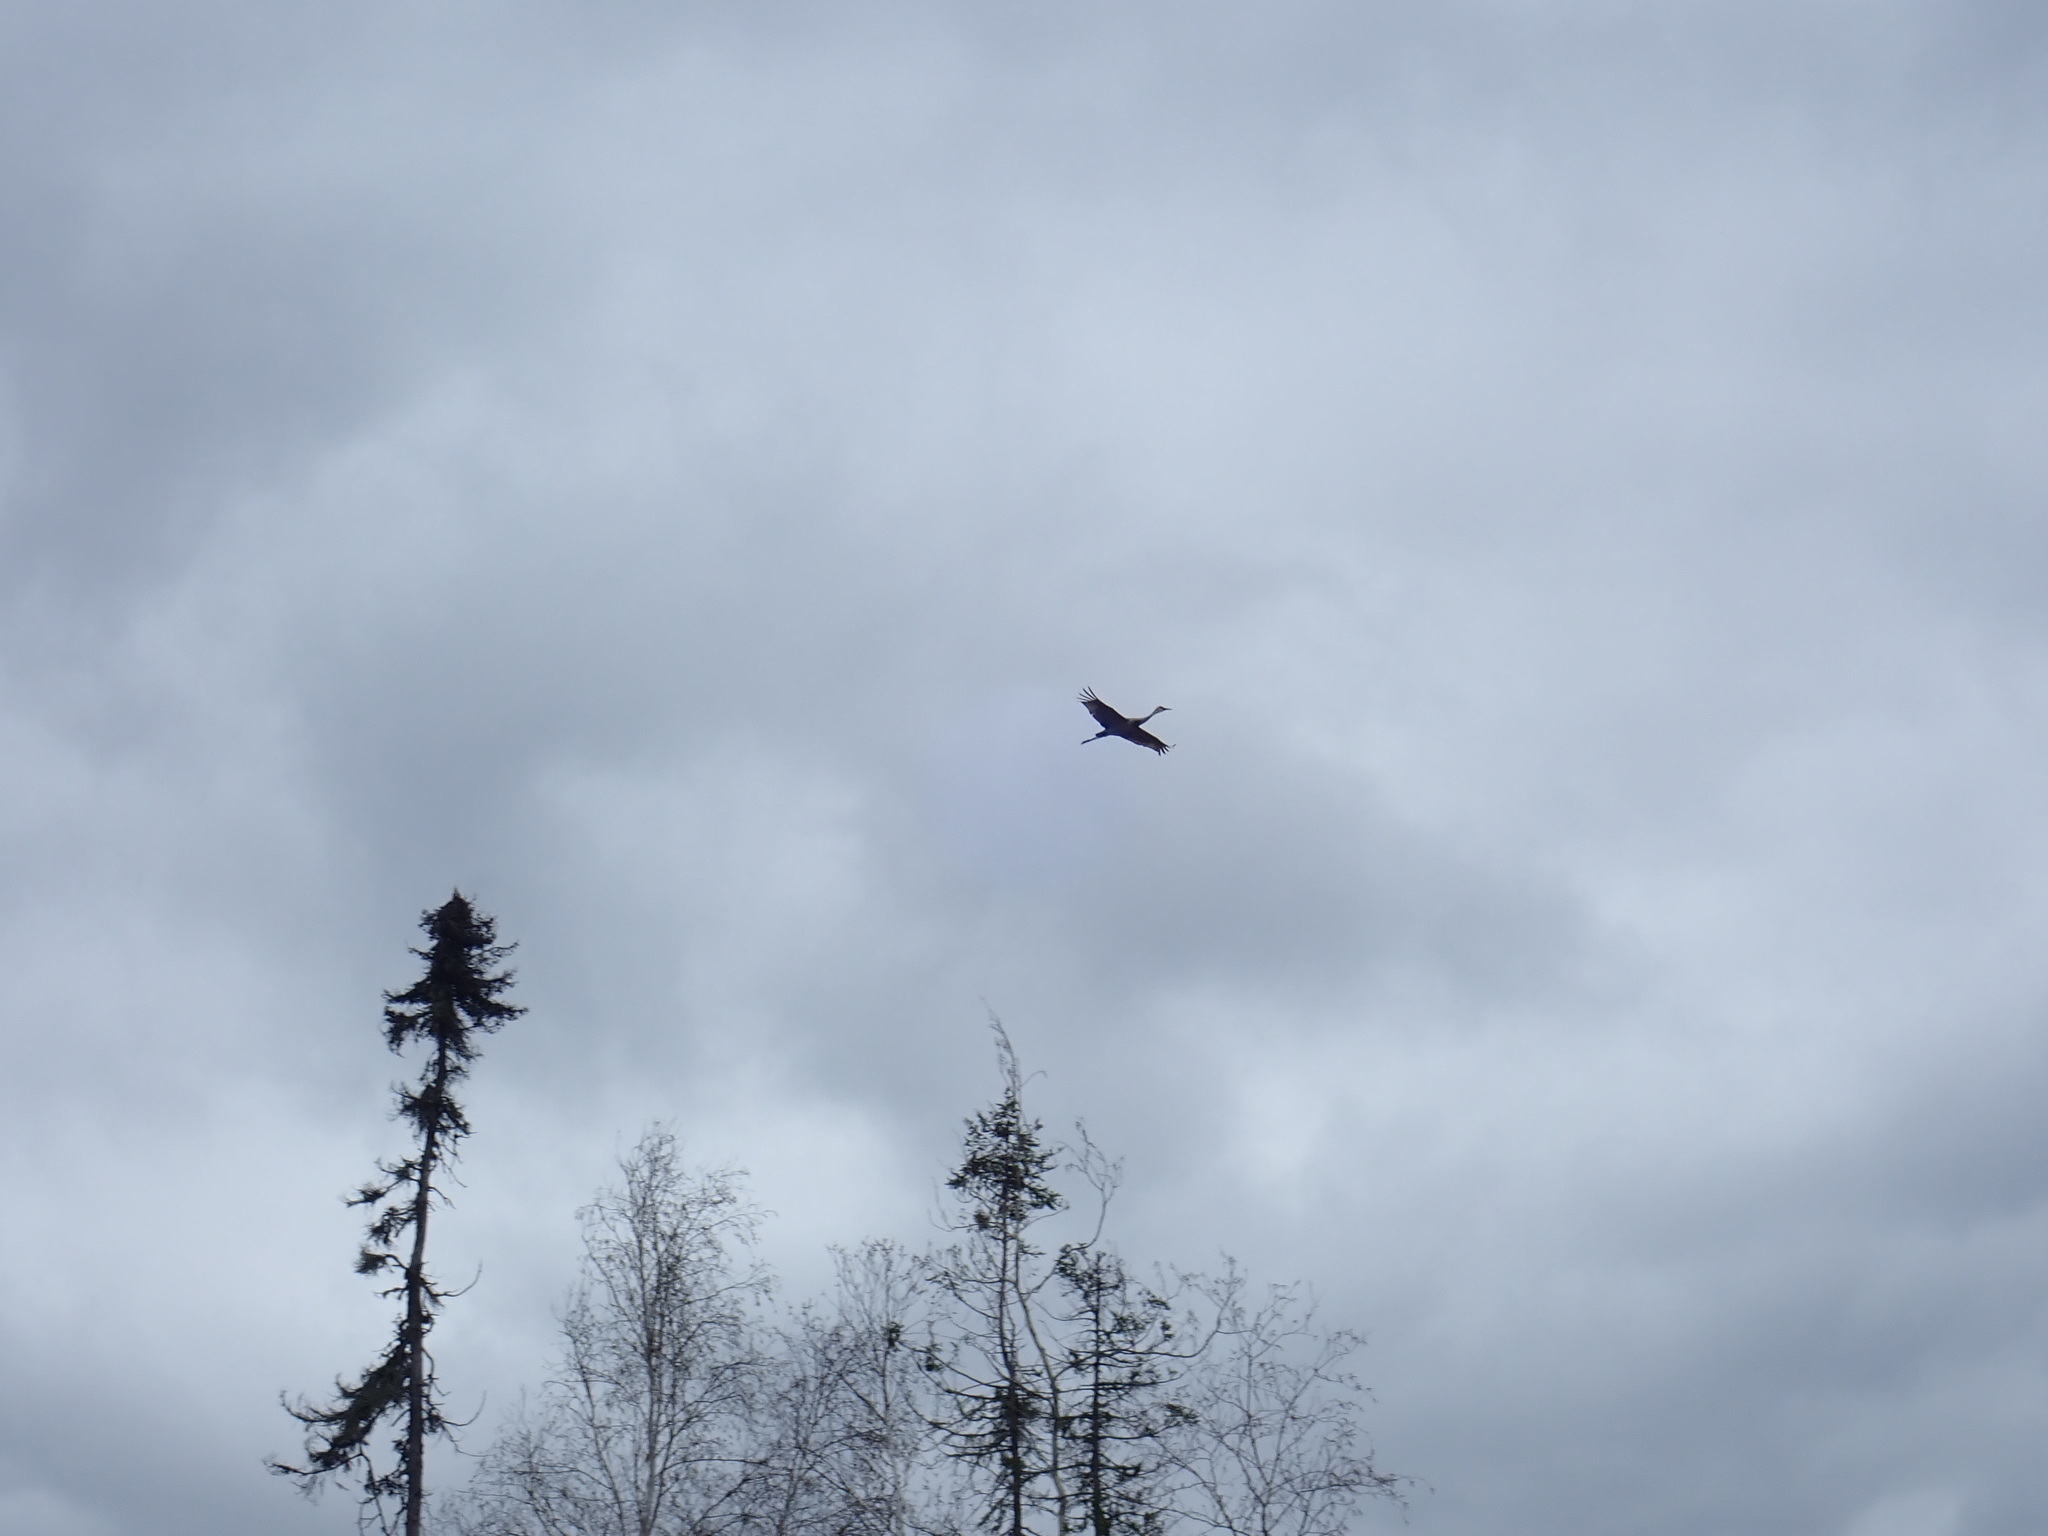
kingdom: Animalia
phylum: Chordata
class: Aves
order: Gruiformes
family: Gruidae
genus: Grus
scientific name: Grus canadensis
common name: Sandhill crane
